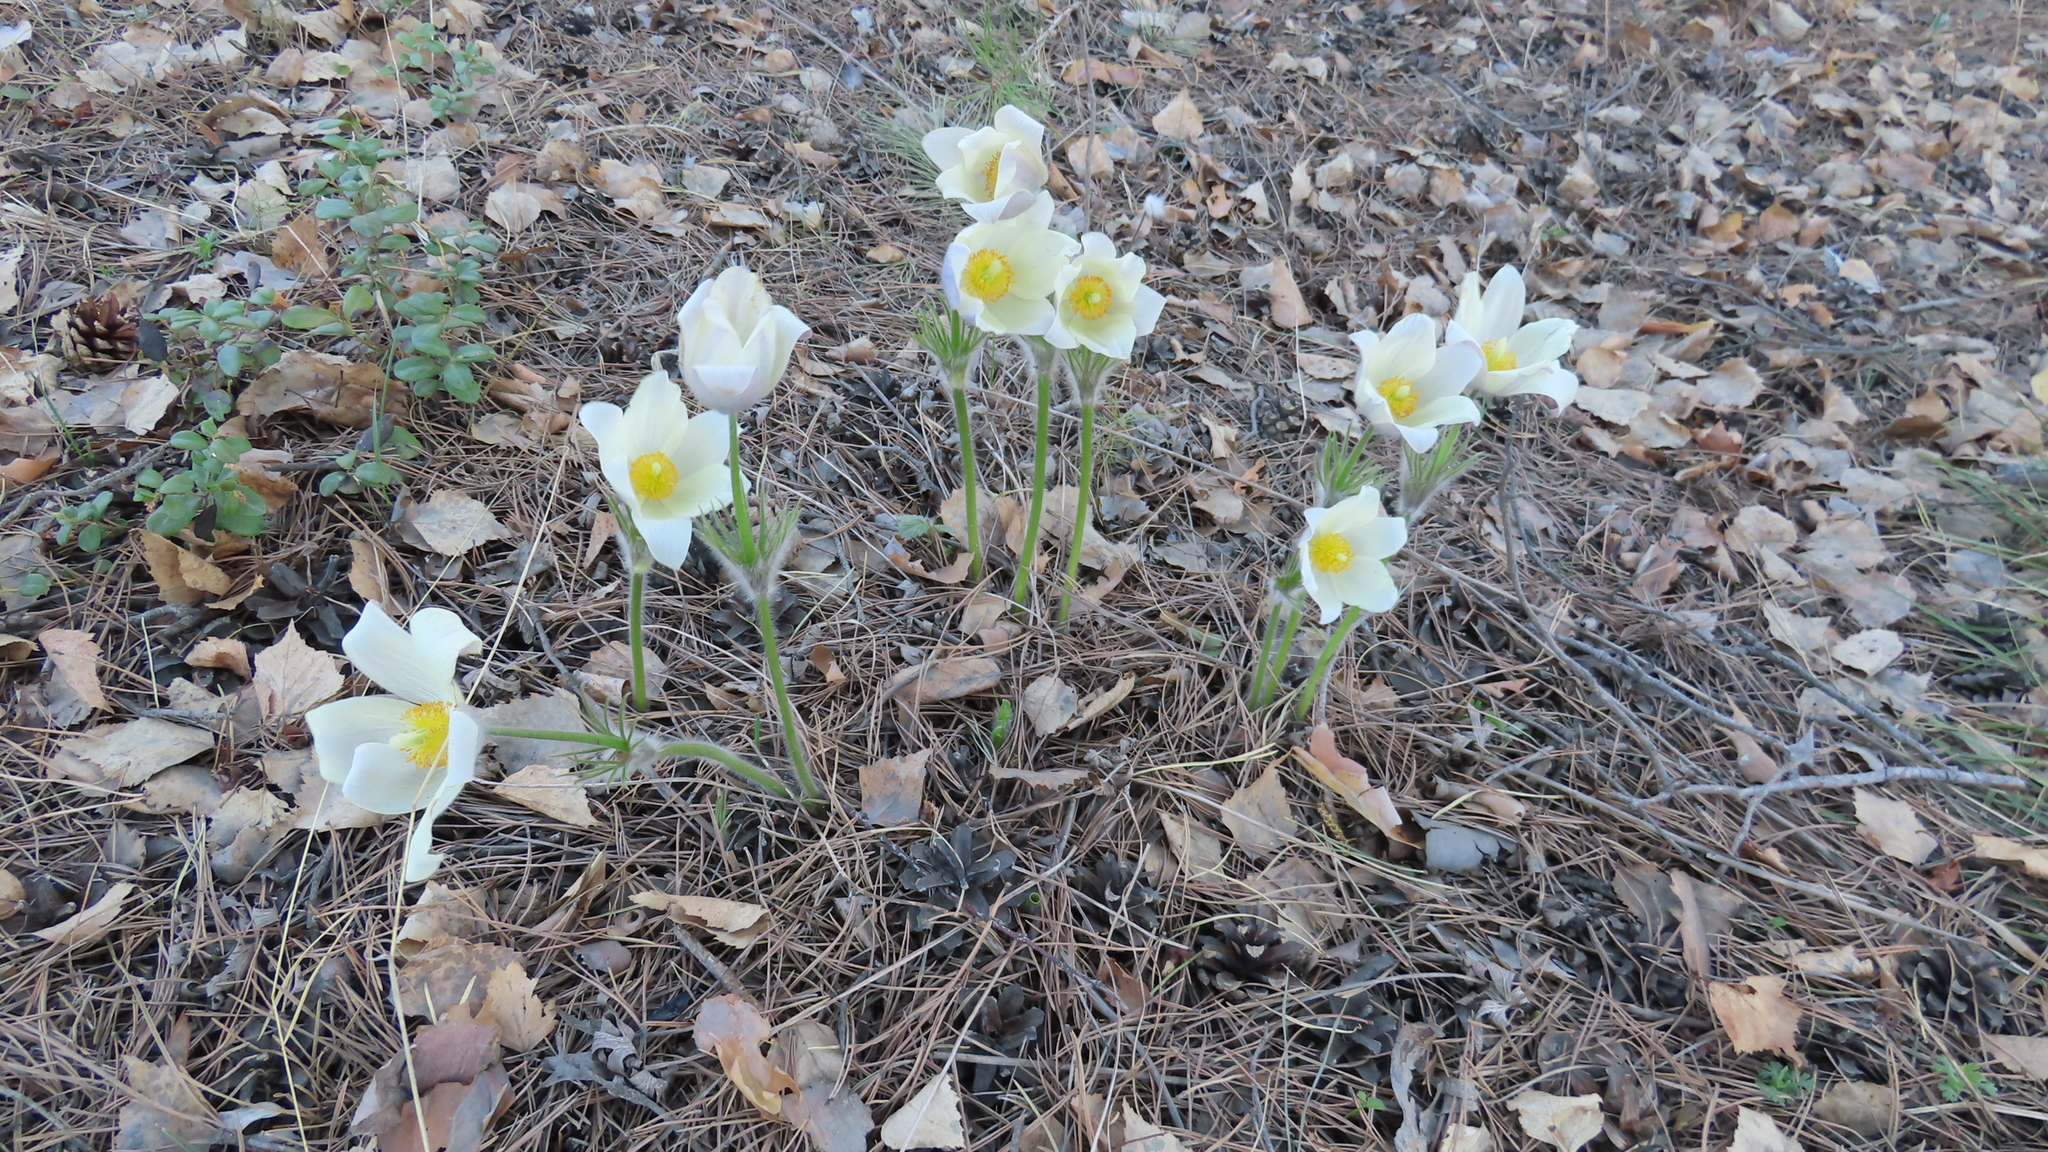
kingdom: Plantae
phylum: Tracheophyta
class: Magnoliopsida
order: Ranunculales
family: Ranunculaceae
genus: Pulsatilla
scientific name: Pulsatilla patens
